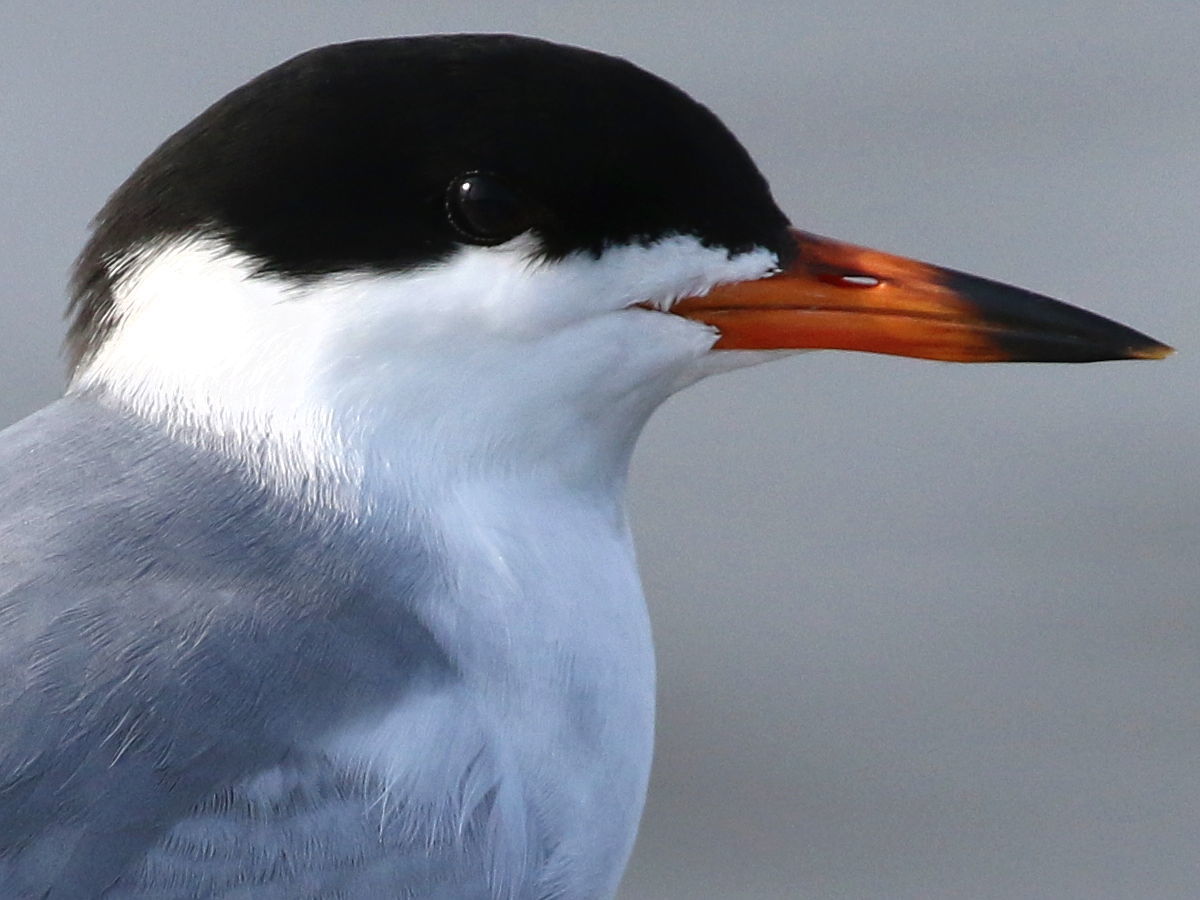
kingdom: Animalia
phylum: Chordata
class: Aves
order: Charadriiformes
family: Laridae
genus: Sterna
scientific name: Sterna forsteri
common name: Forster's tern
